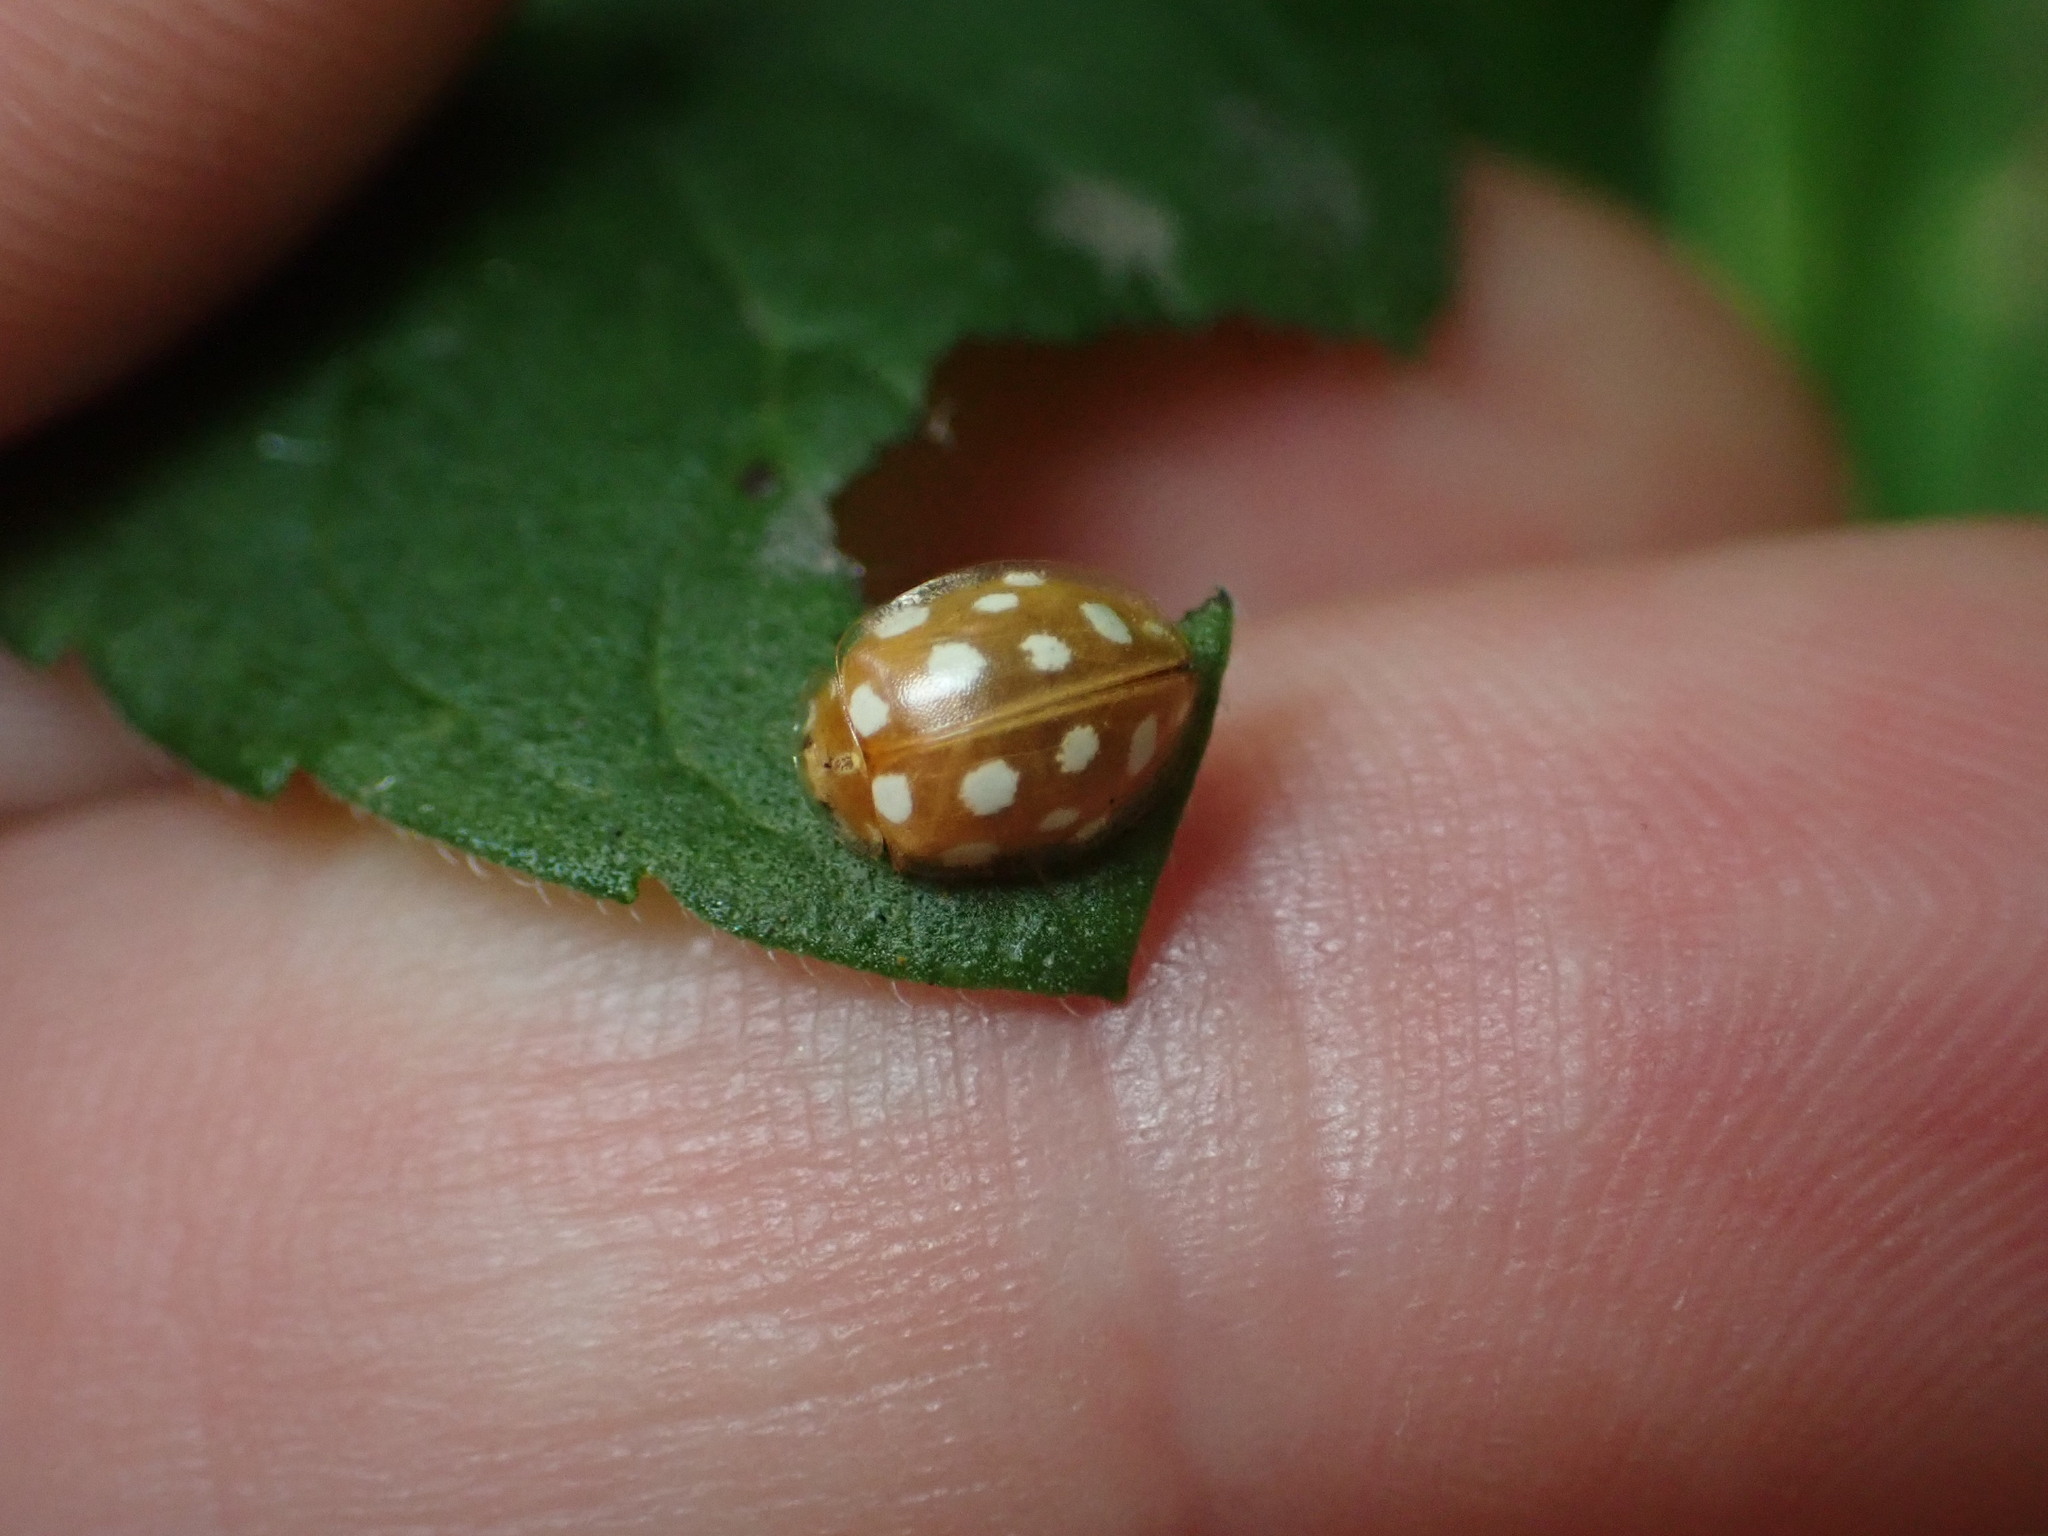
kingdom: Animalia
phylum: Arthropoda
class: Insecta
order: Coleoptera
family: Coccinellidae
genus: Halyzia
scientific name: Halyzia sedecimguttata
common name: Orange ladybird
